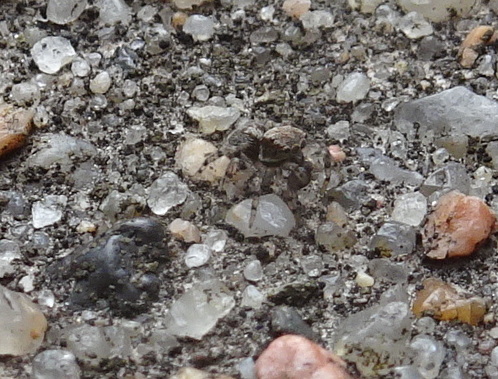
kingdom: Animalia
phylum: Arthropoda
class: Arachnida
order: Araneae
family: Salticidae
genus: Naphrys
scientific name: Naphrys pulex
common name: Flea jumping spider
